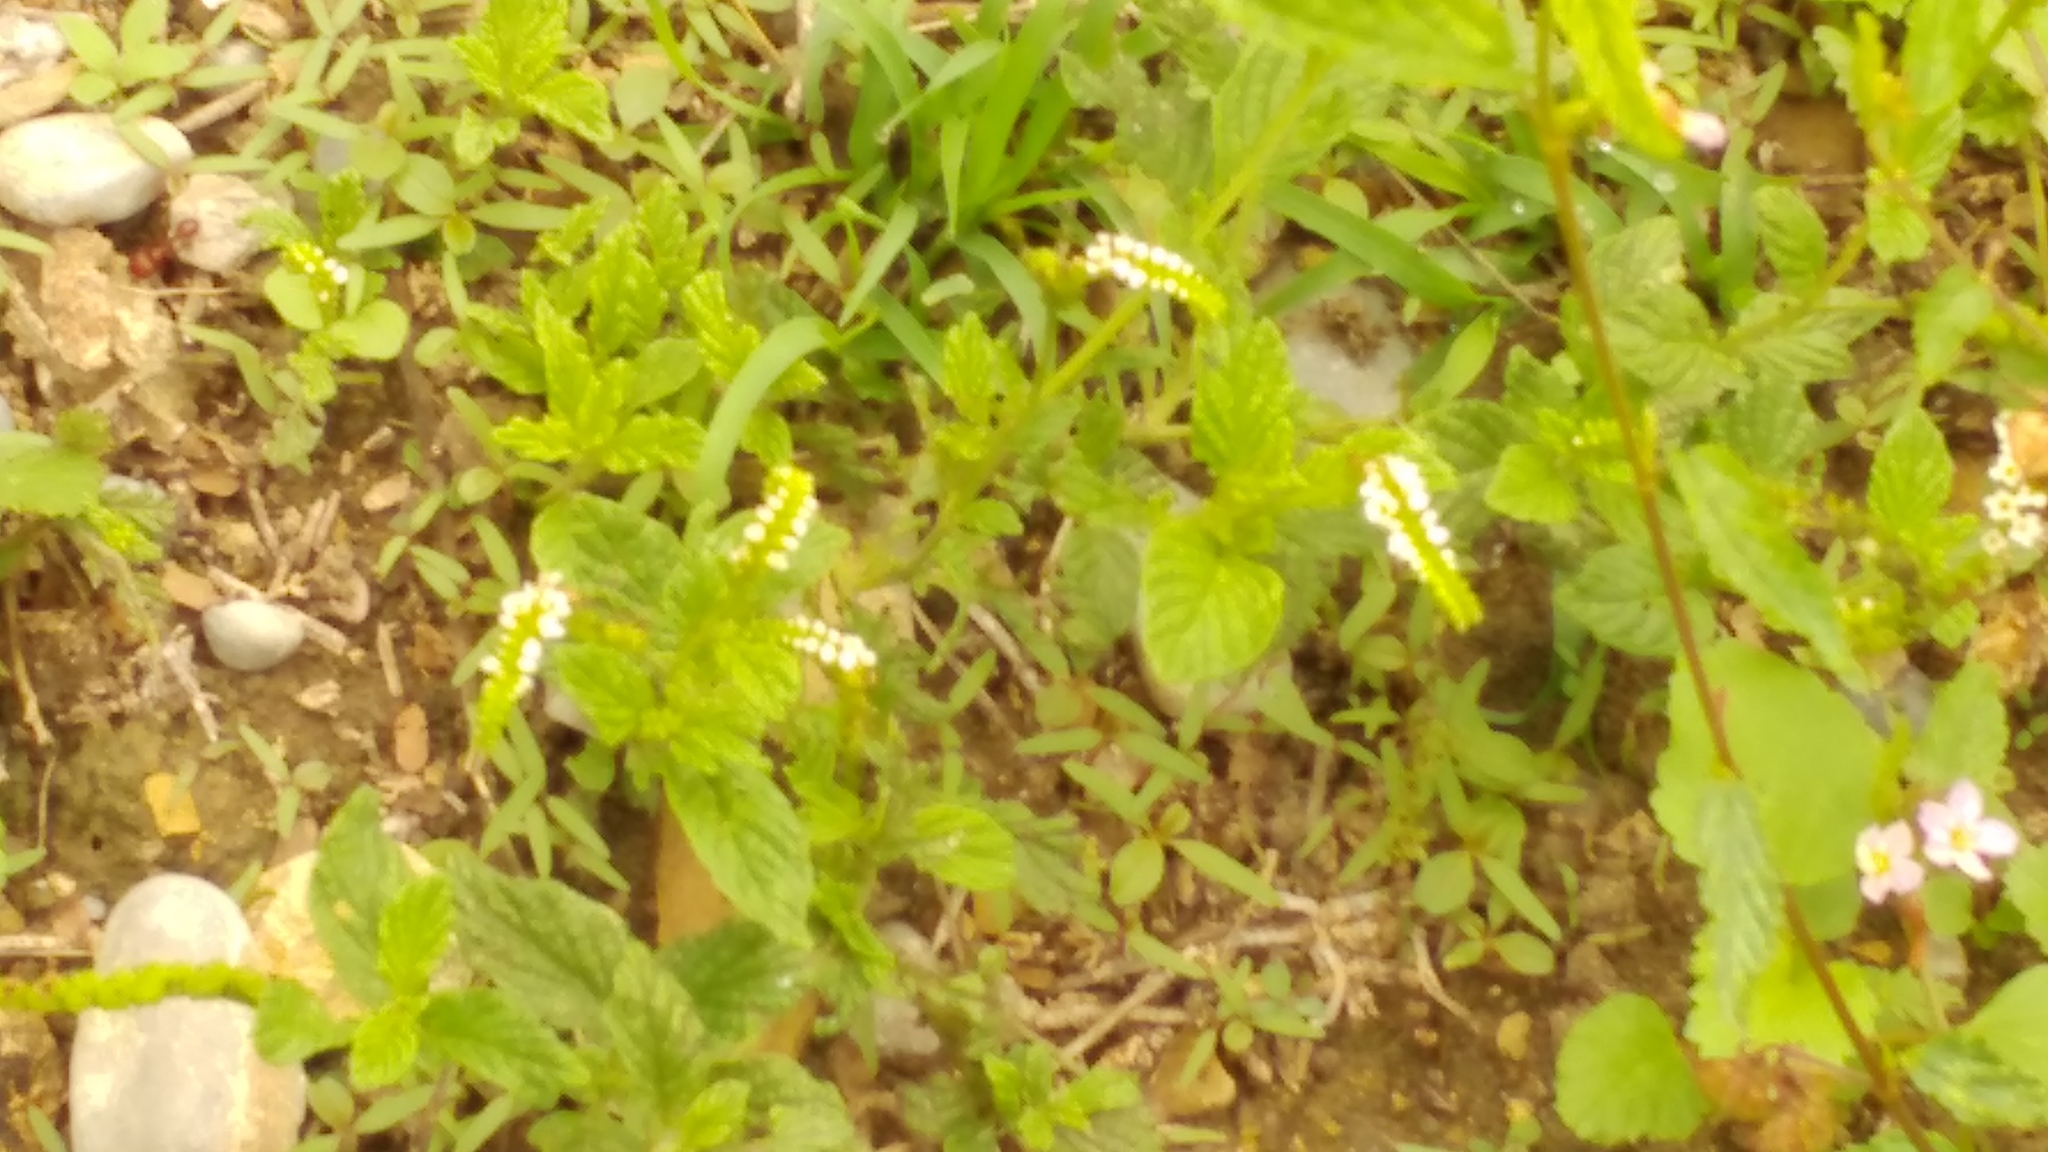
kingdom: Plantae
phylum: Tracheophyta
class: Magnoliopsida
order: Boraginales
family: Heliotropiaceae
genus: Heliotropium
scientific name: Heliotropium angiospermum
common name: Eye bright
